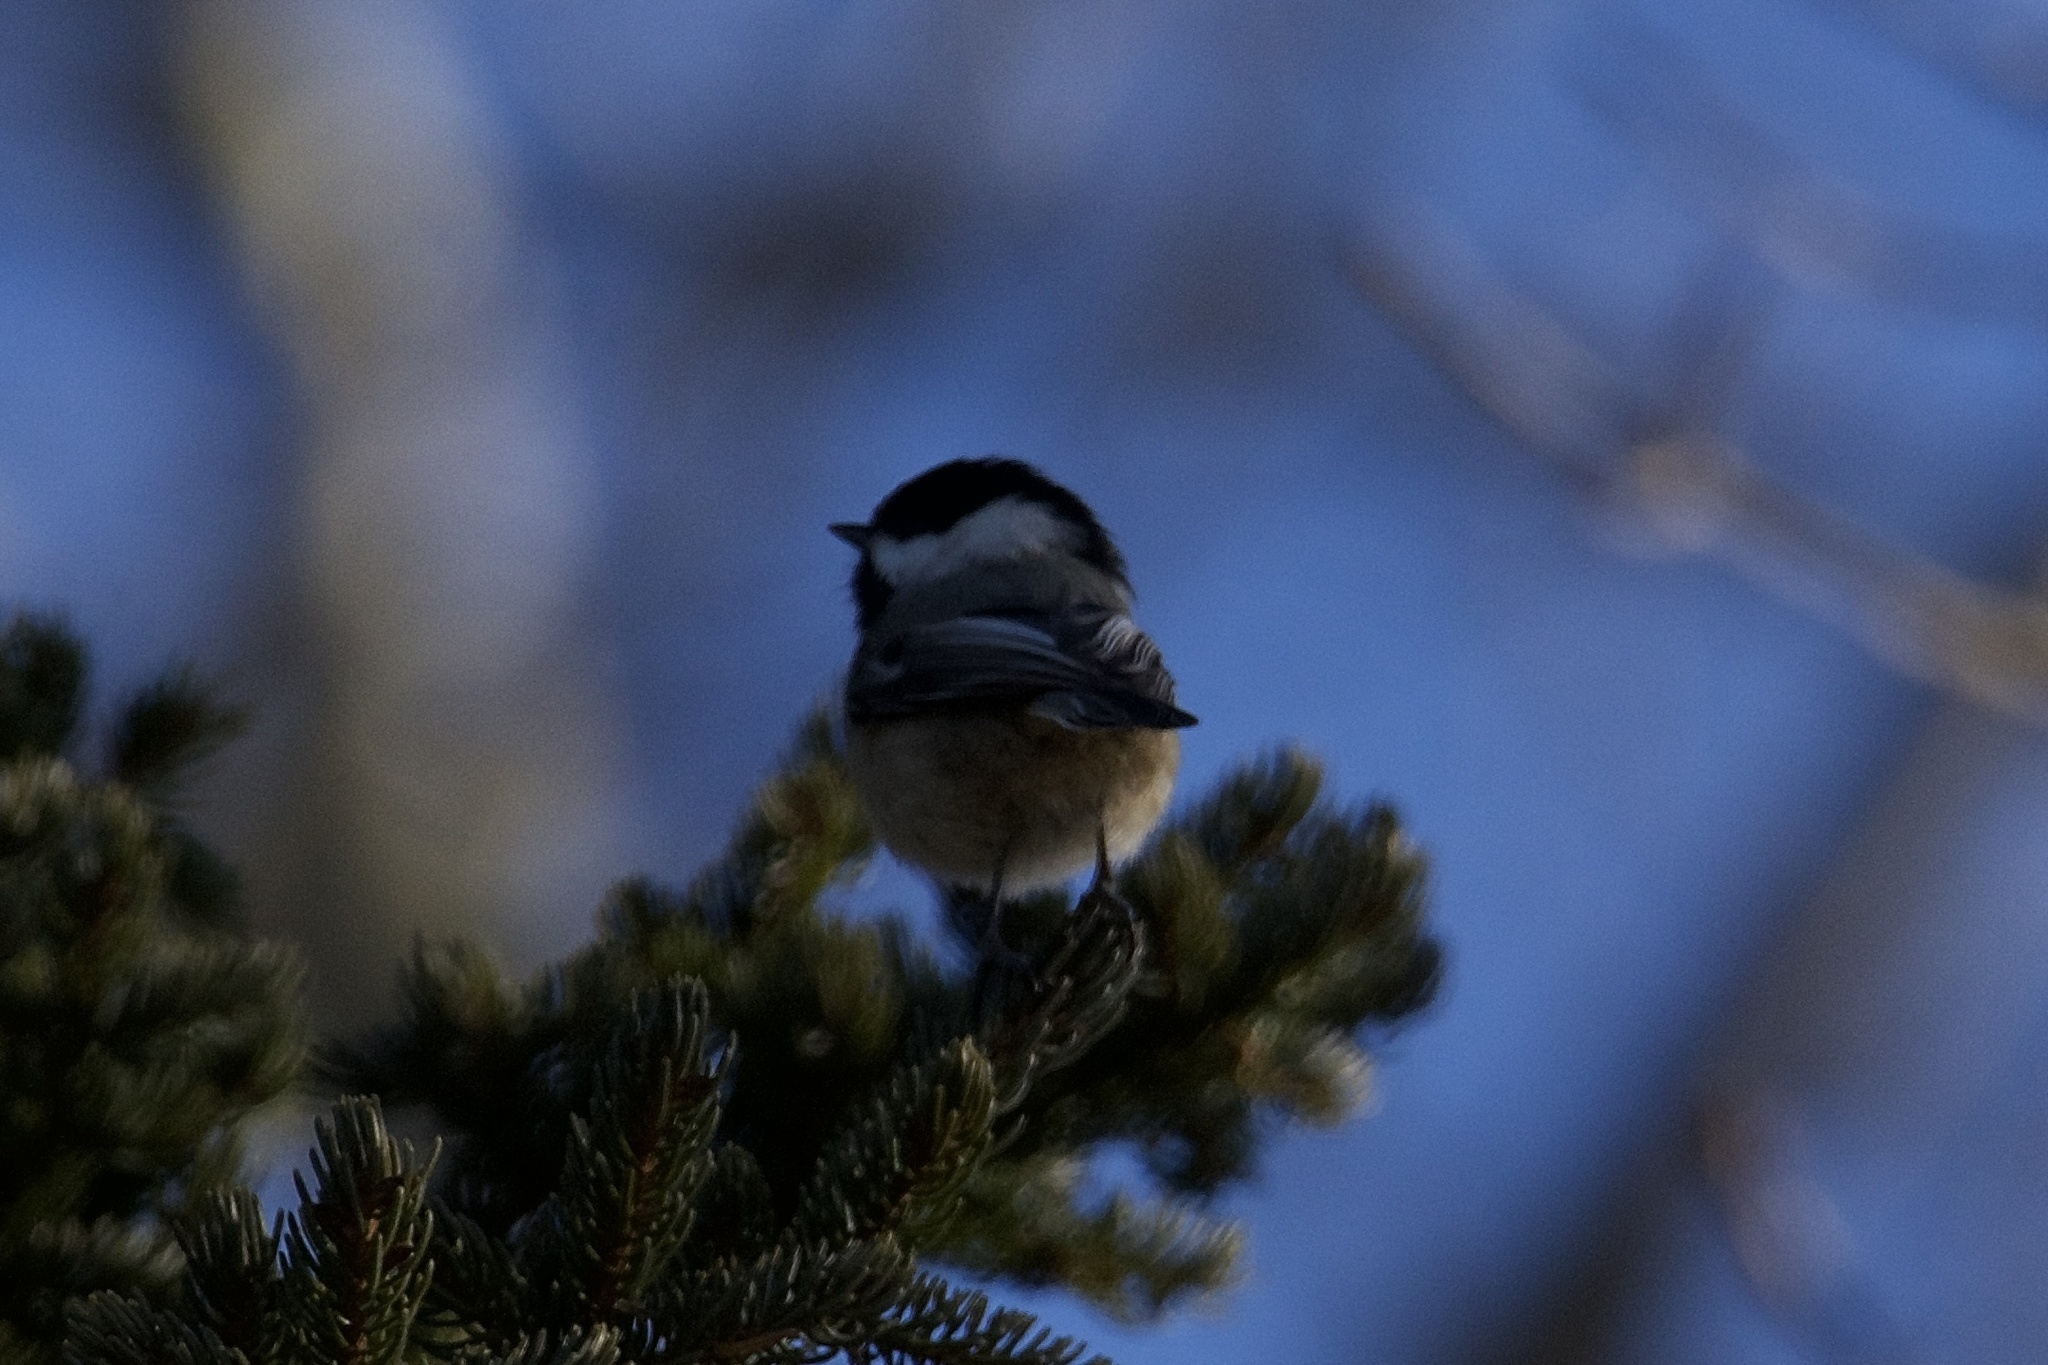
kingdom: Animalia
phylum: Chordata
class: Aves
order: Passeriformes
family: Paridae
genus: Poecile
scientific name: Poecile atricapillus
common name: Black-capped chickadee
